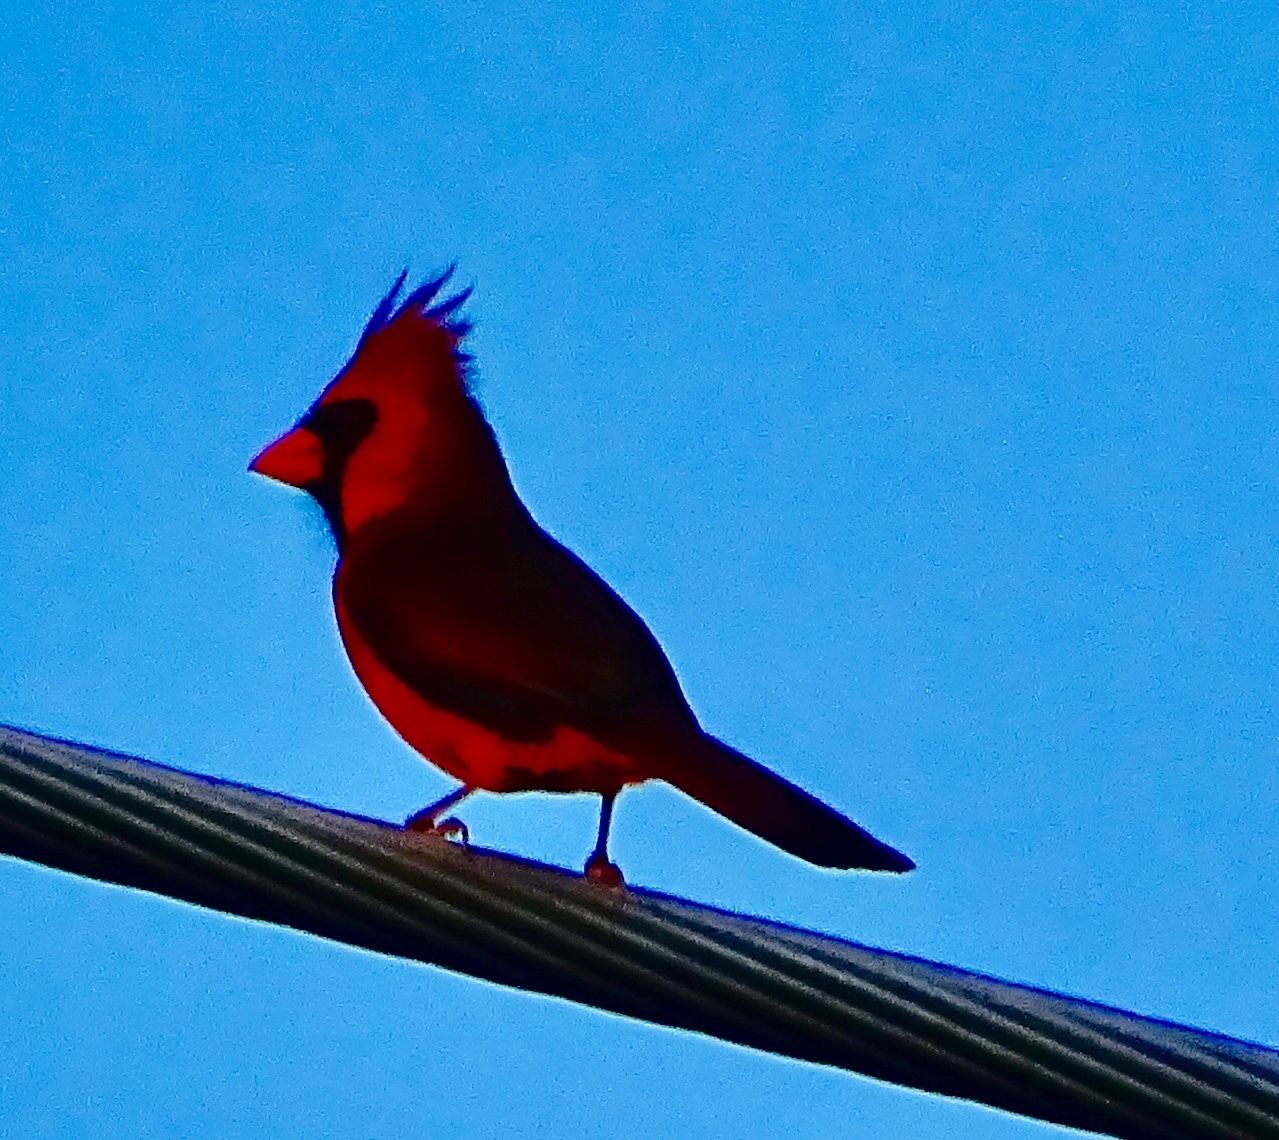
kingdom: Animalia
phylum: Chordata
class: Aves
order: Passeriformes
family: Cardinalidae
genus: Cardinalis
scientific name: Cardinalis cardinalis
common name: Northern cardinal
